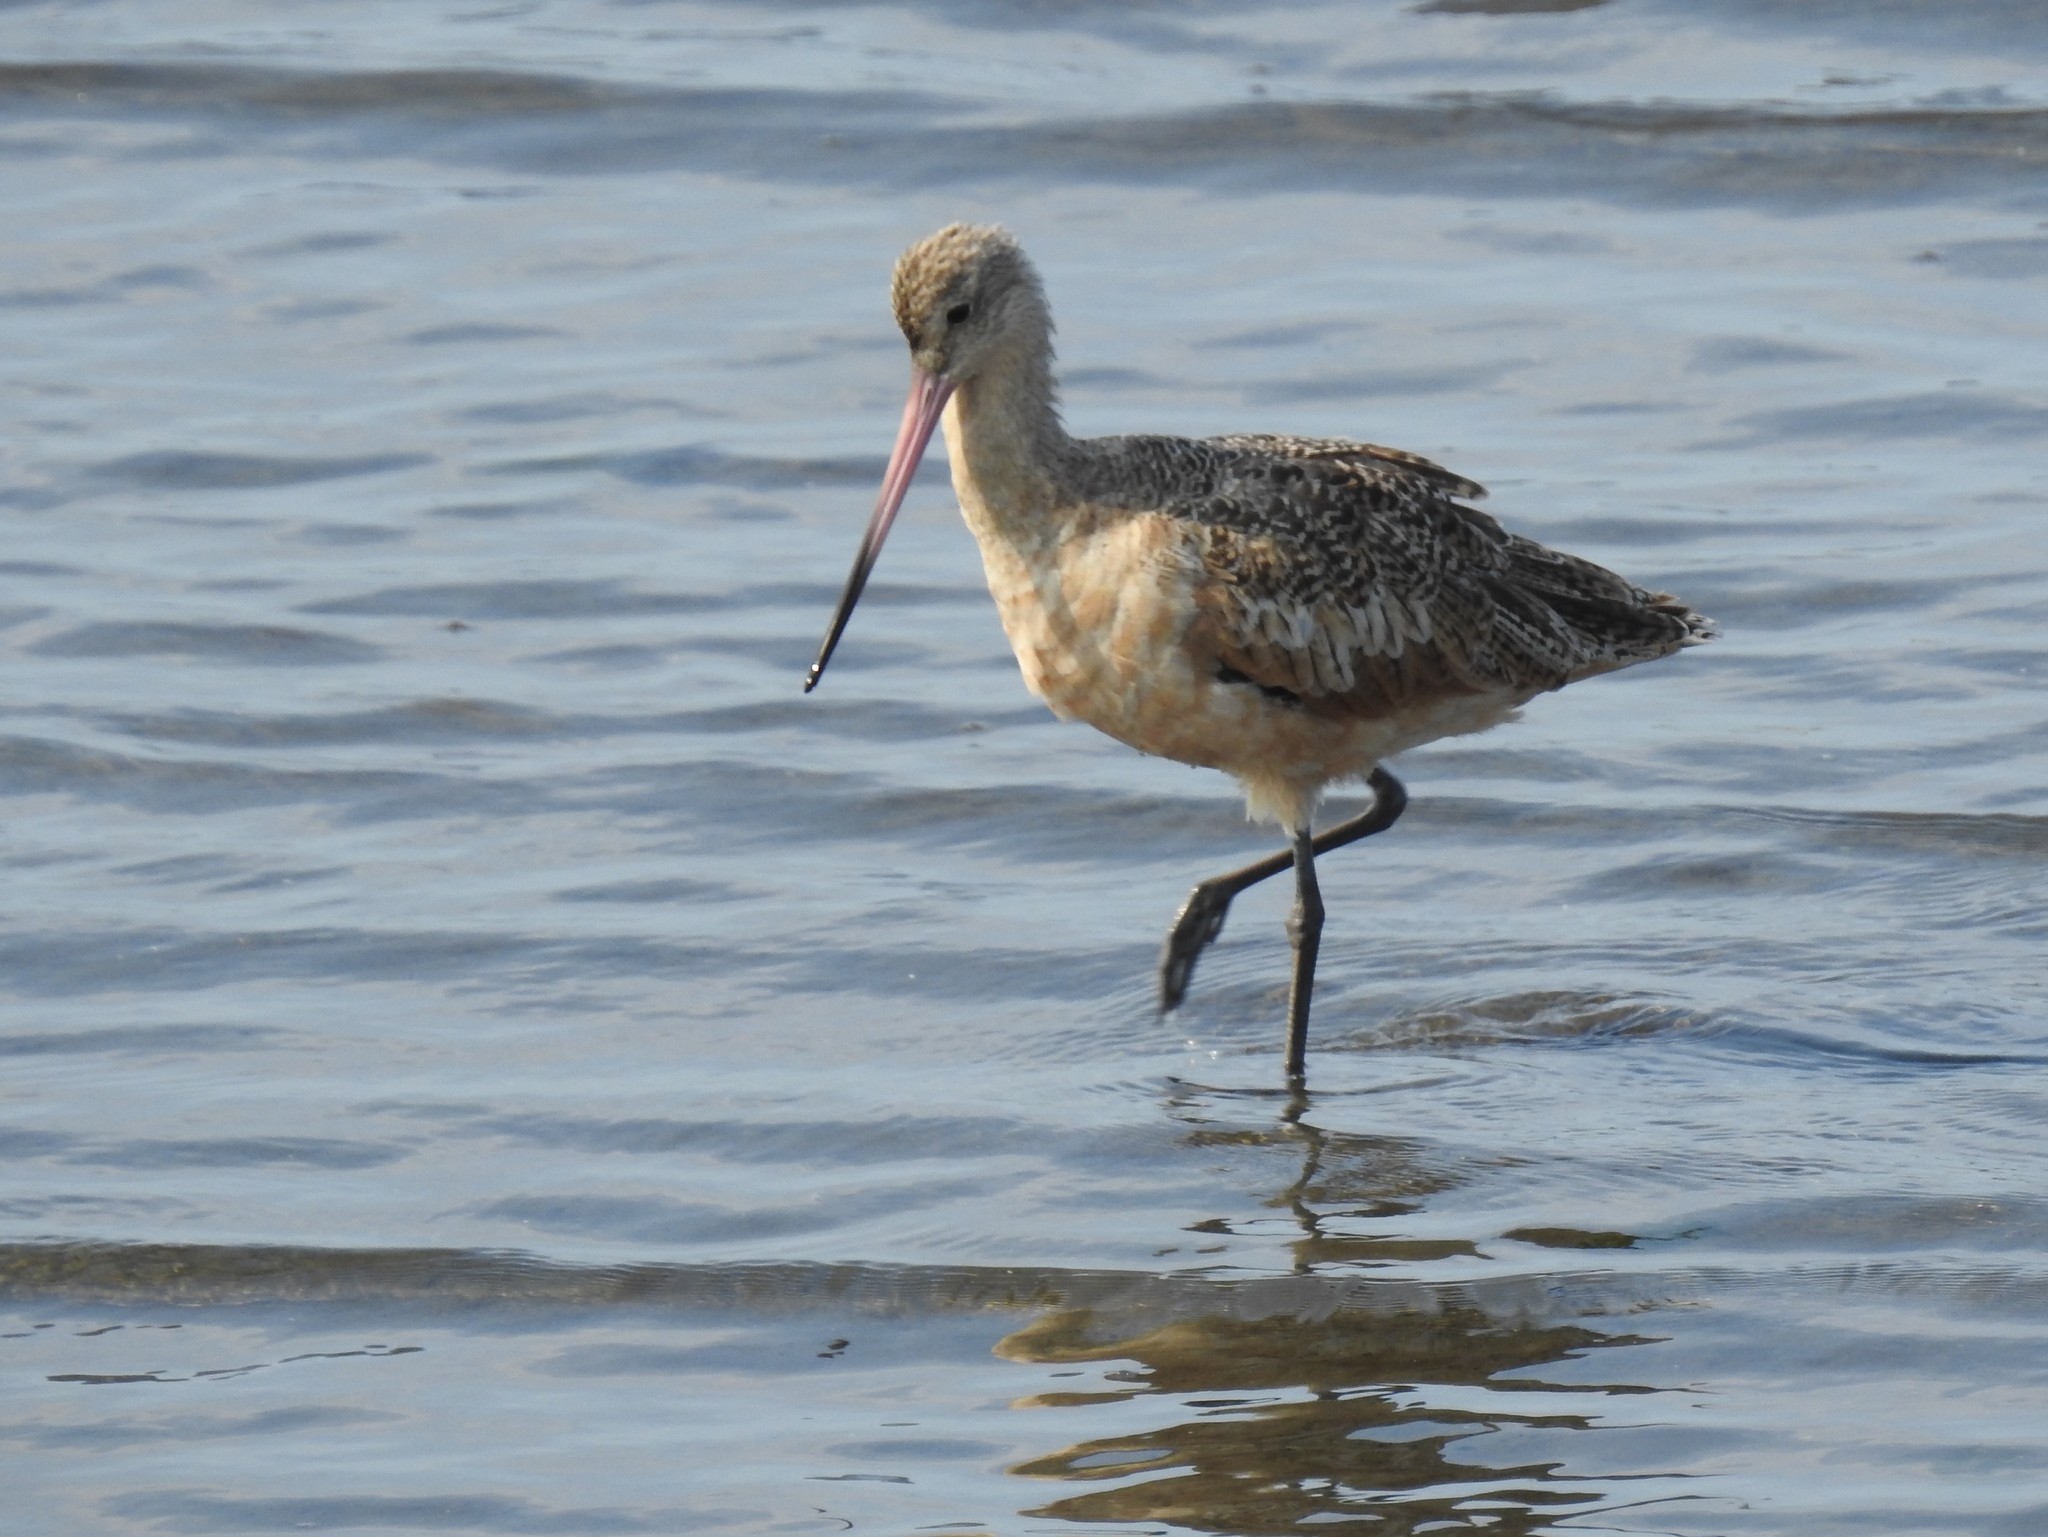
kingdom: Animalia
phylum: Chordata
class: Aves
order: Charadriiformes
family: Scolopacidae
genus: Limosa
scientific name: Limosa fedoa
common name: Marbled godwit
